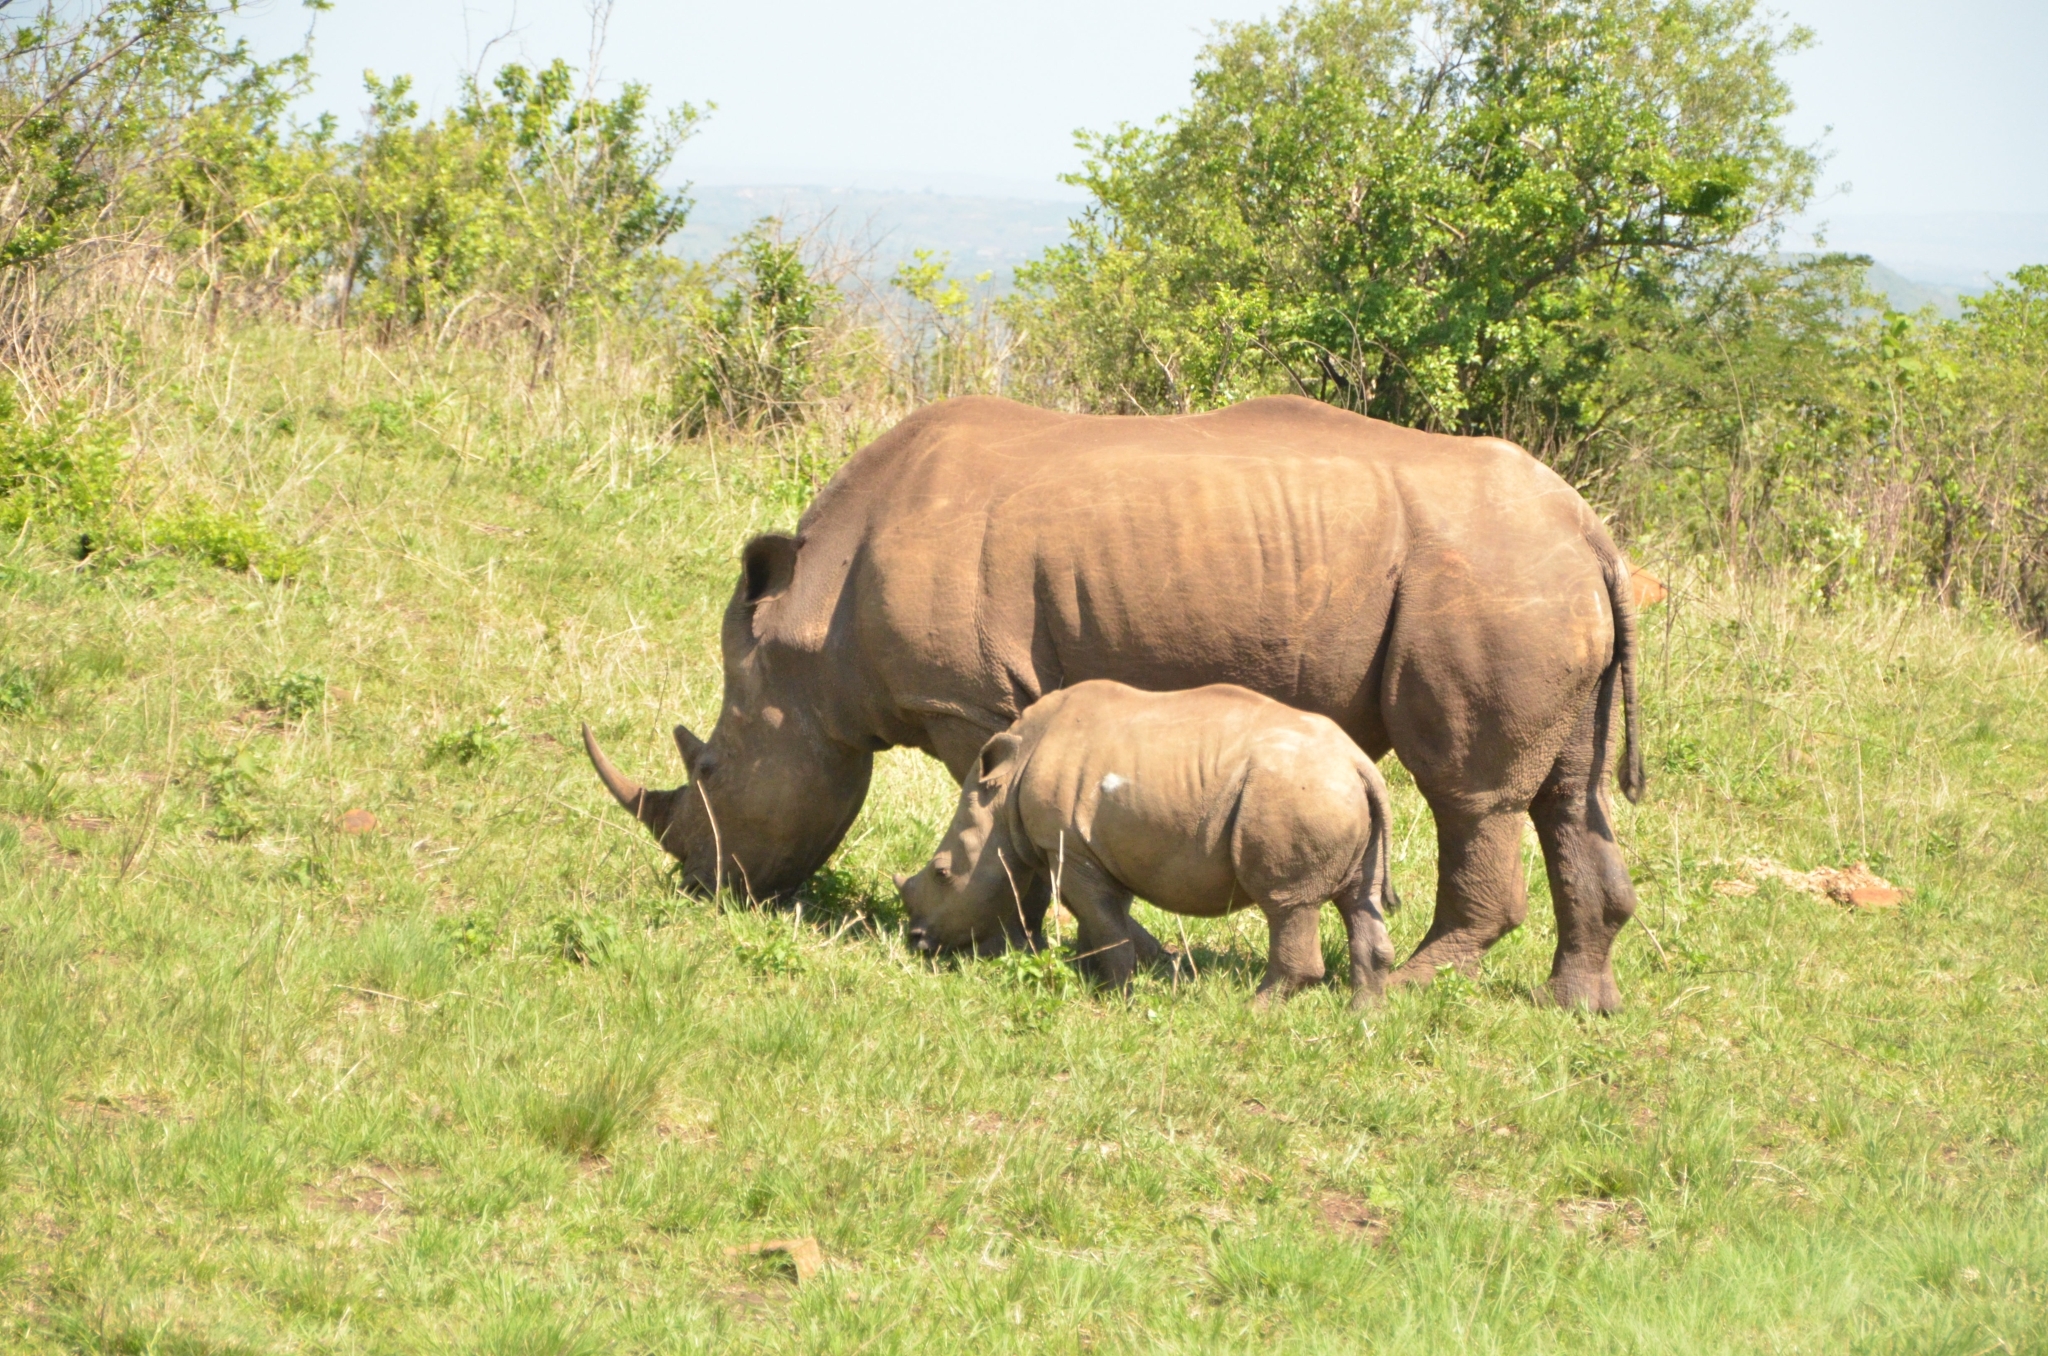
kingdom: Animalia
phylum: Chordata
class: Mammalia
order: Perissodactyla
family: Rhinocerotidae
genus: Ceratotherium
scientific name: Ceratotherium simum
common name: White rhinoceros
